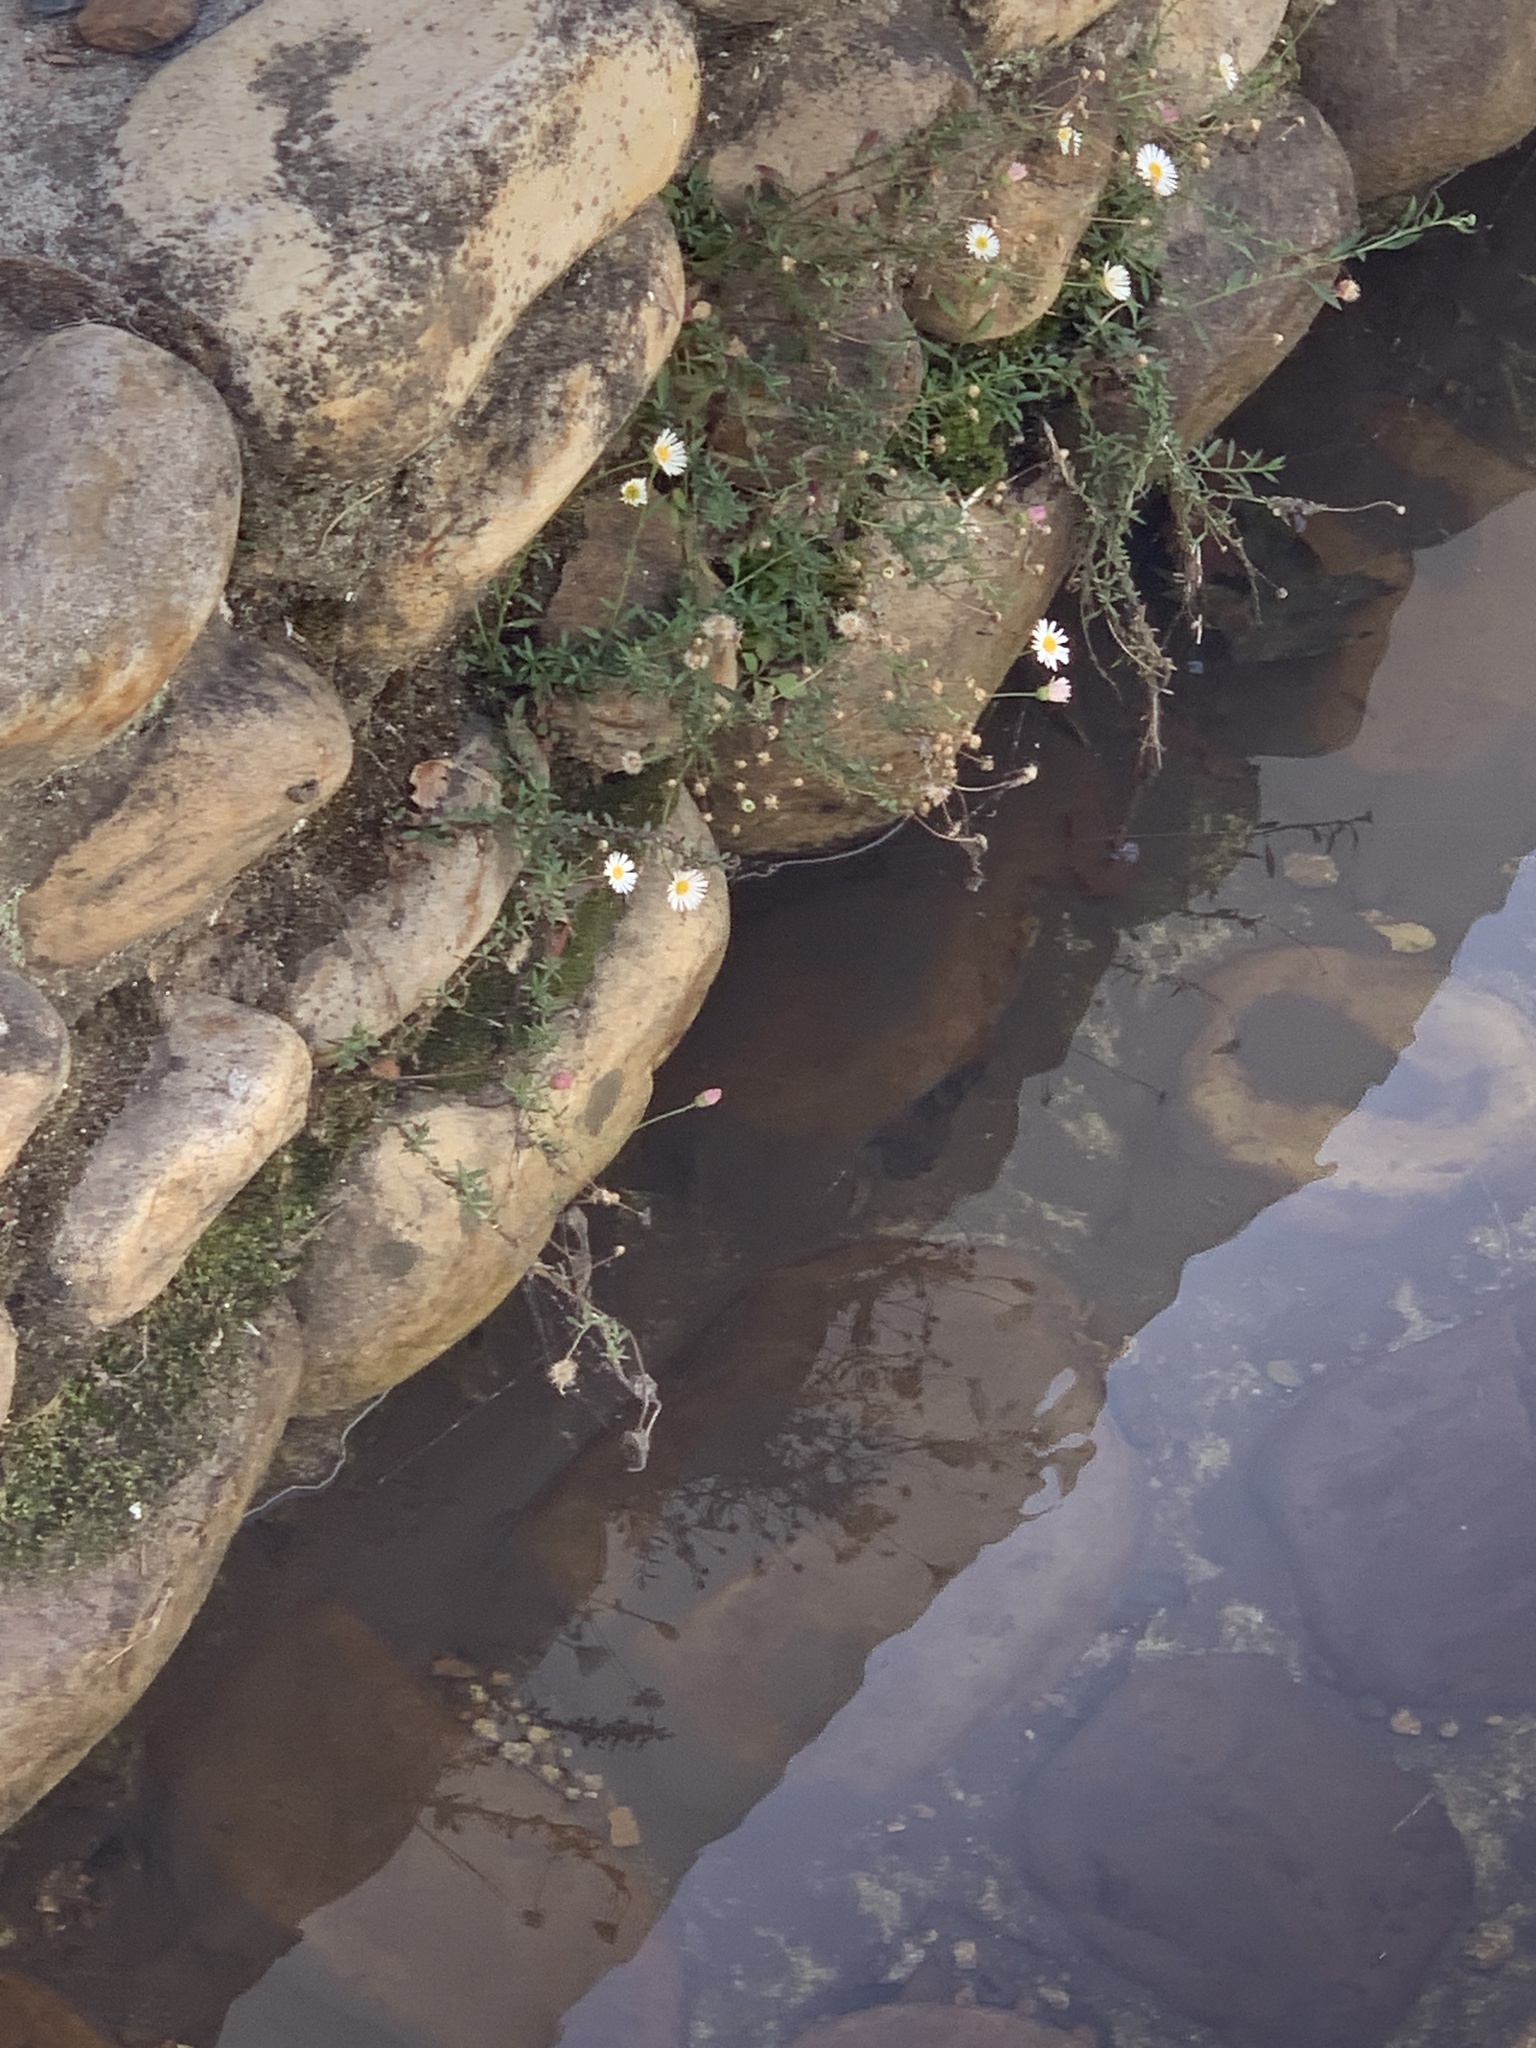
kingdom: Plantae
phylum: Tracheophyta
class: Magnoliopsida
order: Asterales
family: Asteraceae
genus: Erigeron
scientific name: Erigeron karvinskianus
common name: Mexican fleabane
